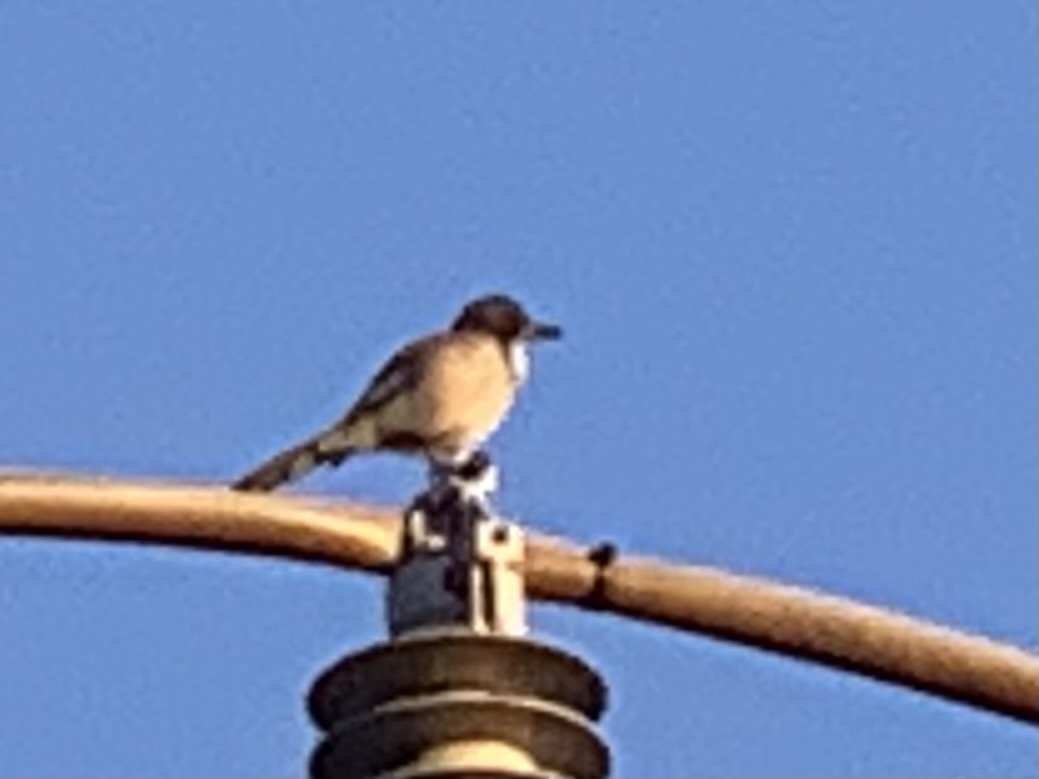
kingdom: Animalia
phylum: Chordata
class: Aves
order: Passeriformes
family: Corvidae
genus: Aphelocoma
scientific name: Aphelocoma californica
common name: California scrub-jay
